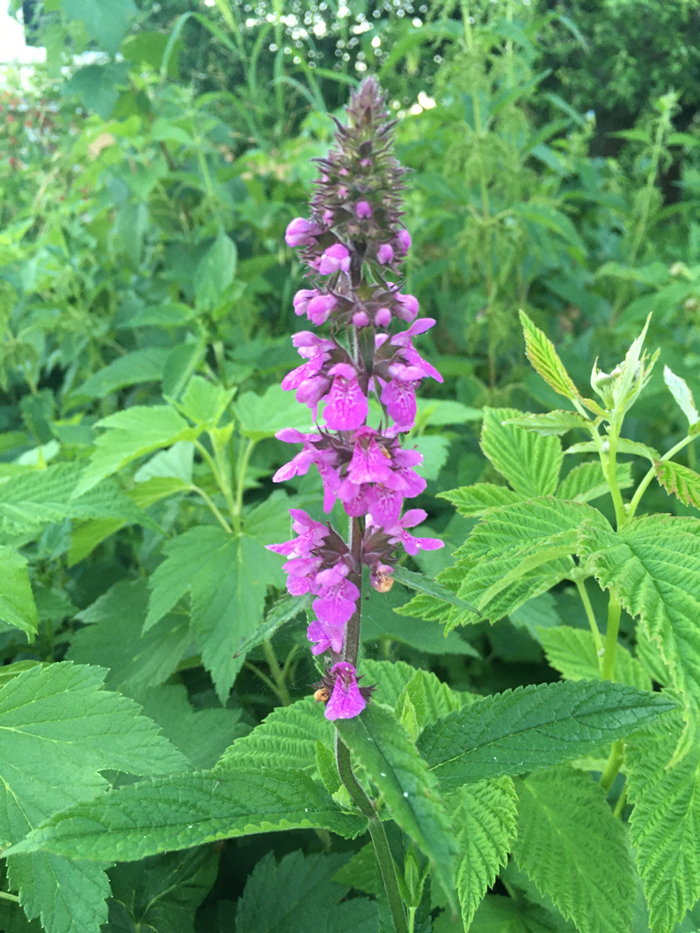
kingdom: Plantae
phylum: Tracheophyta
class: Magnoliopsida
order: Lamiales
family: Lamiaceae
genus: Stachys
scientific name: Stachys palustris
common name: Marsh woundwort
